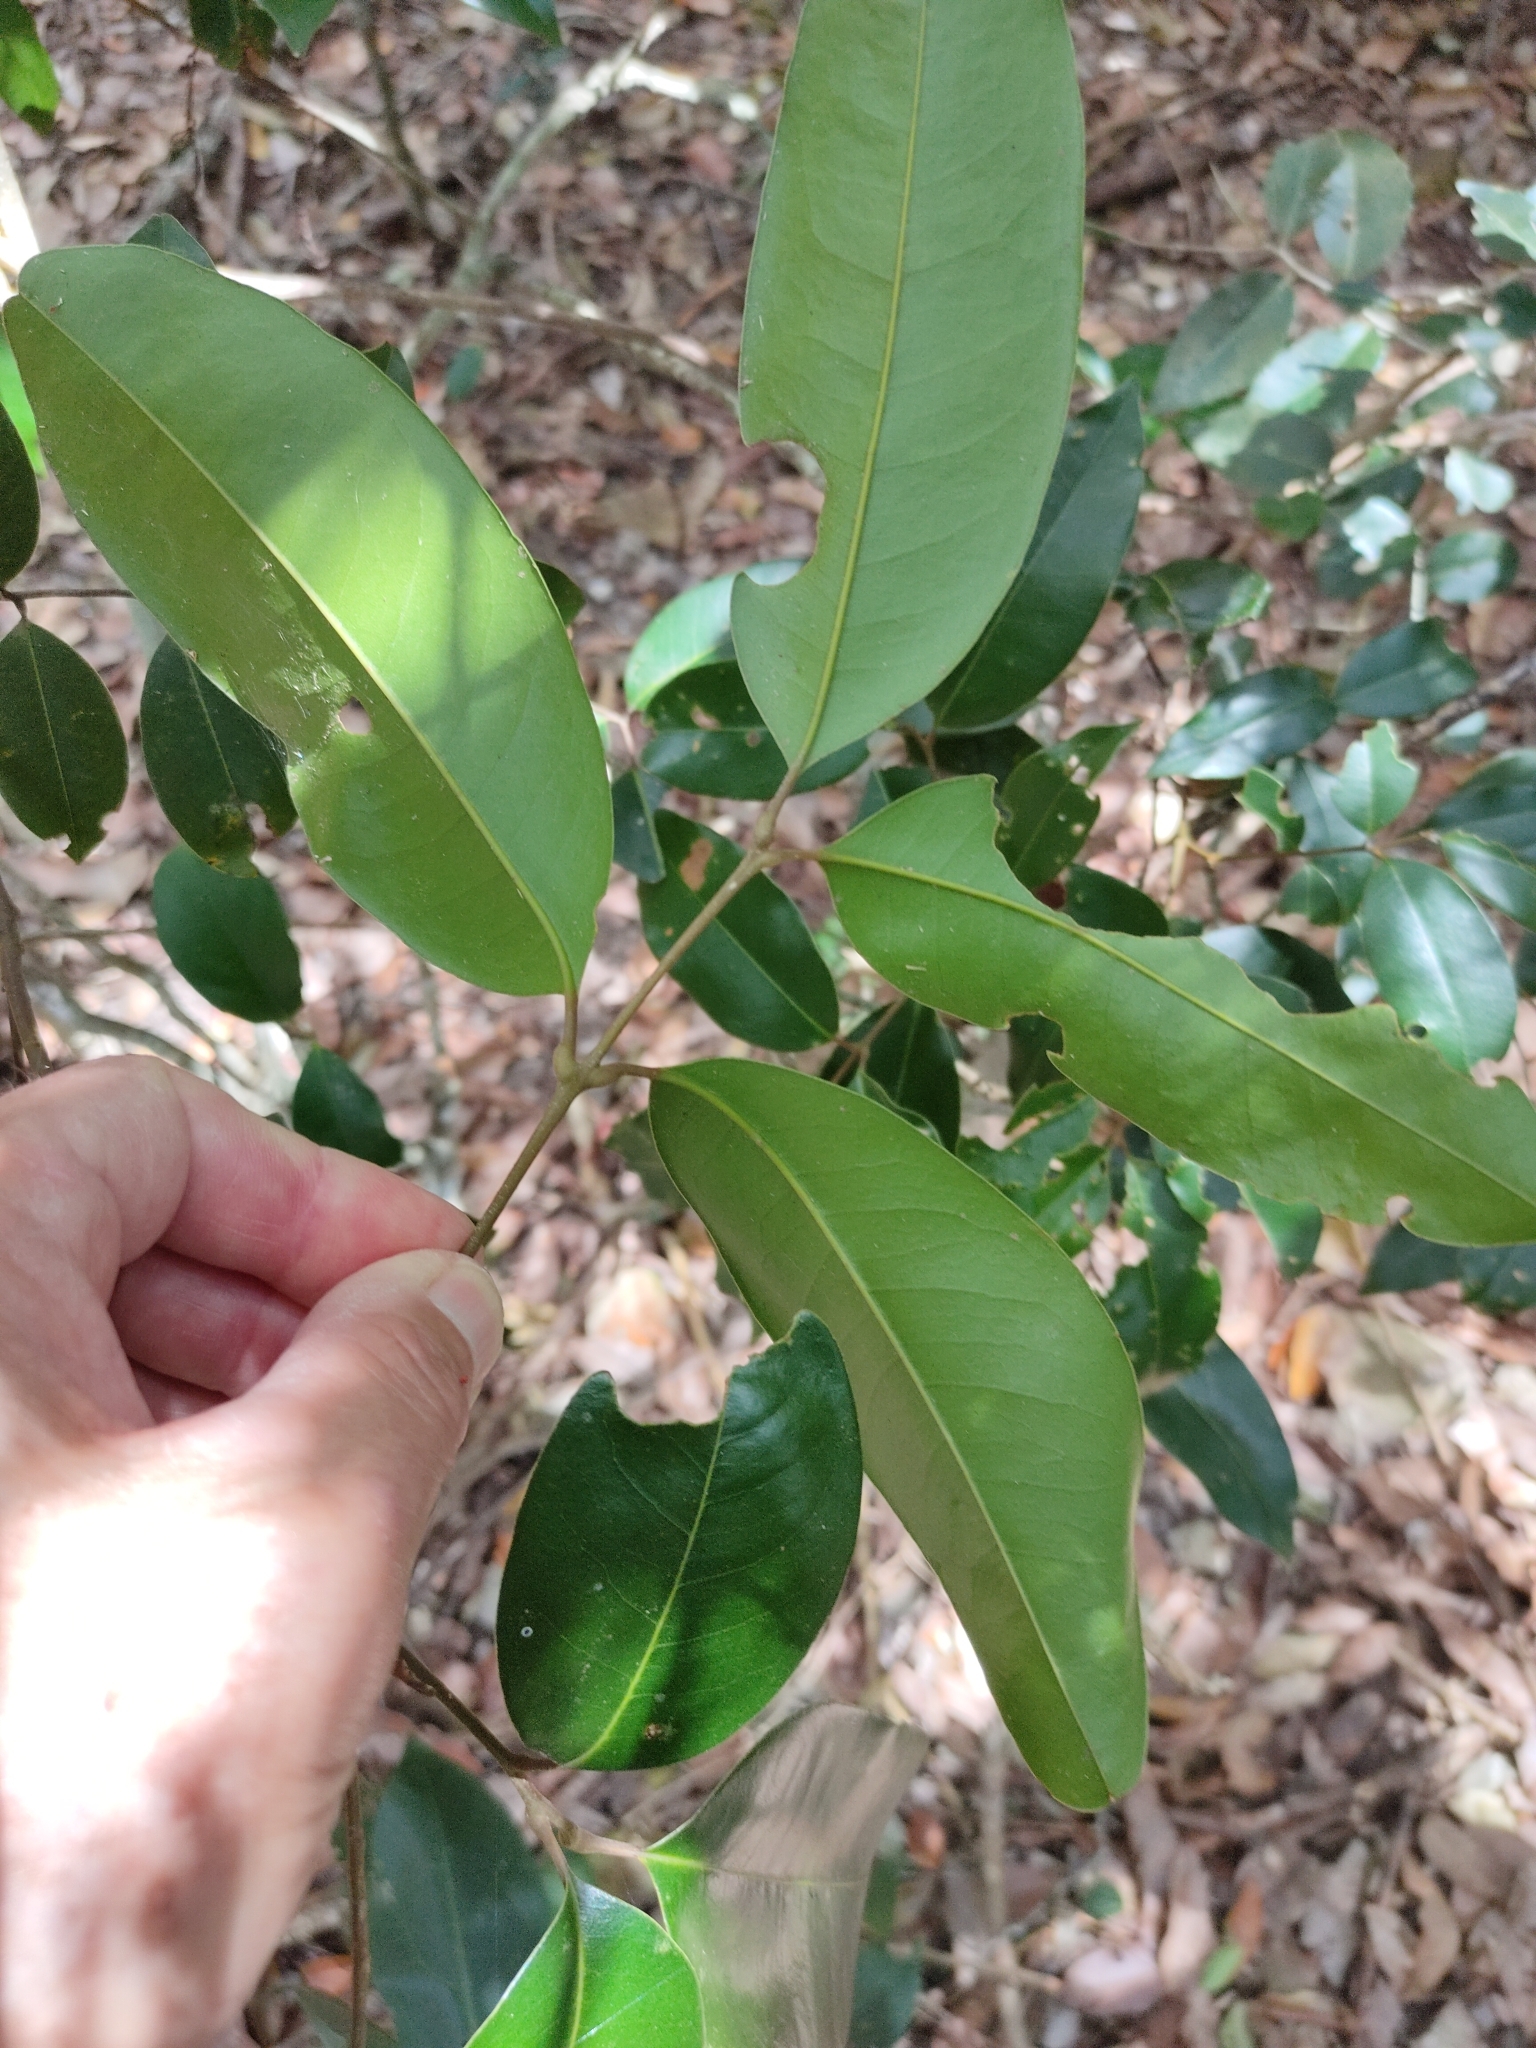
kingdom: Plantae
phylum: Tracheophyta
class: Magnoliopsida
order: Sapindales
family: Sapindaceae
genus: Mischocarpus
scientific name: Mischocarpus pyriformis
